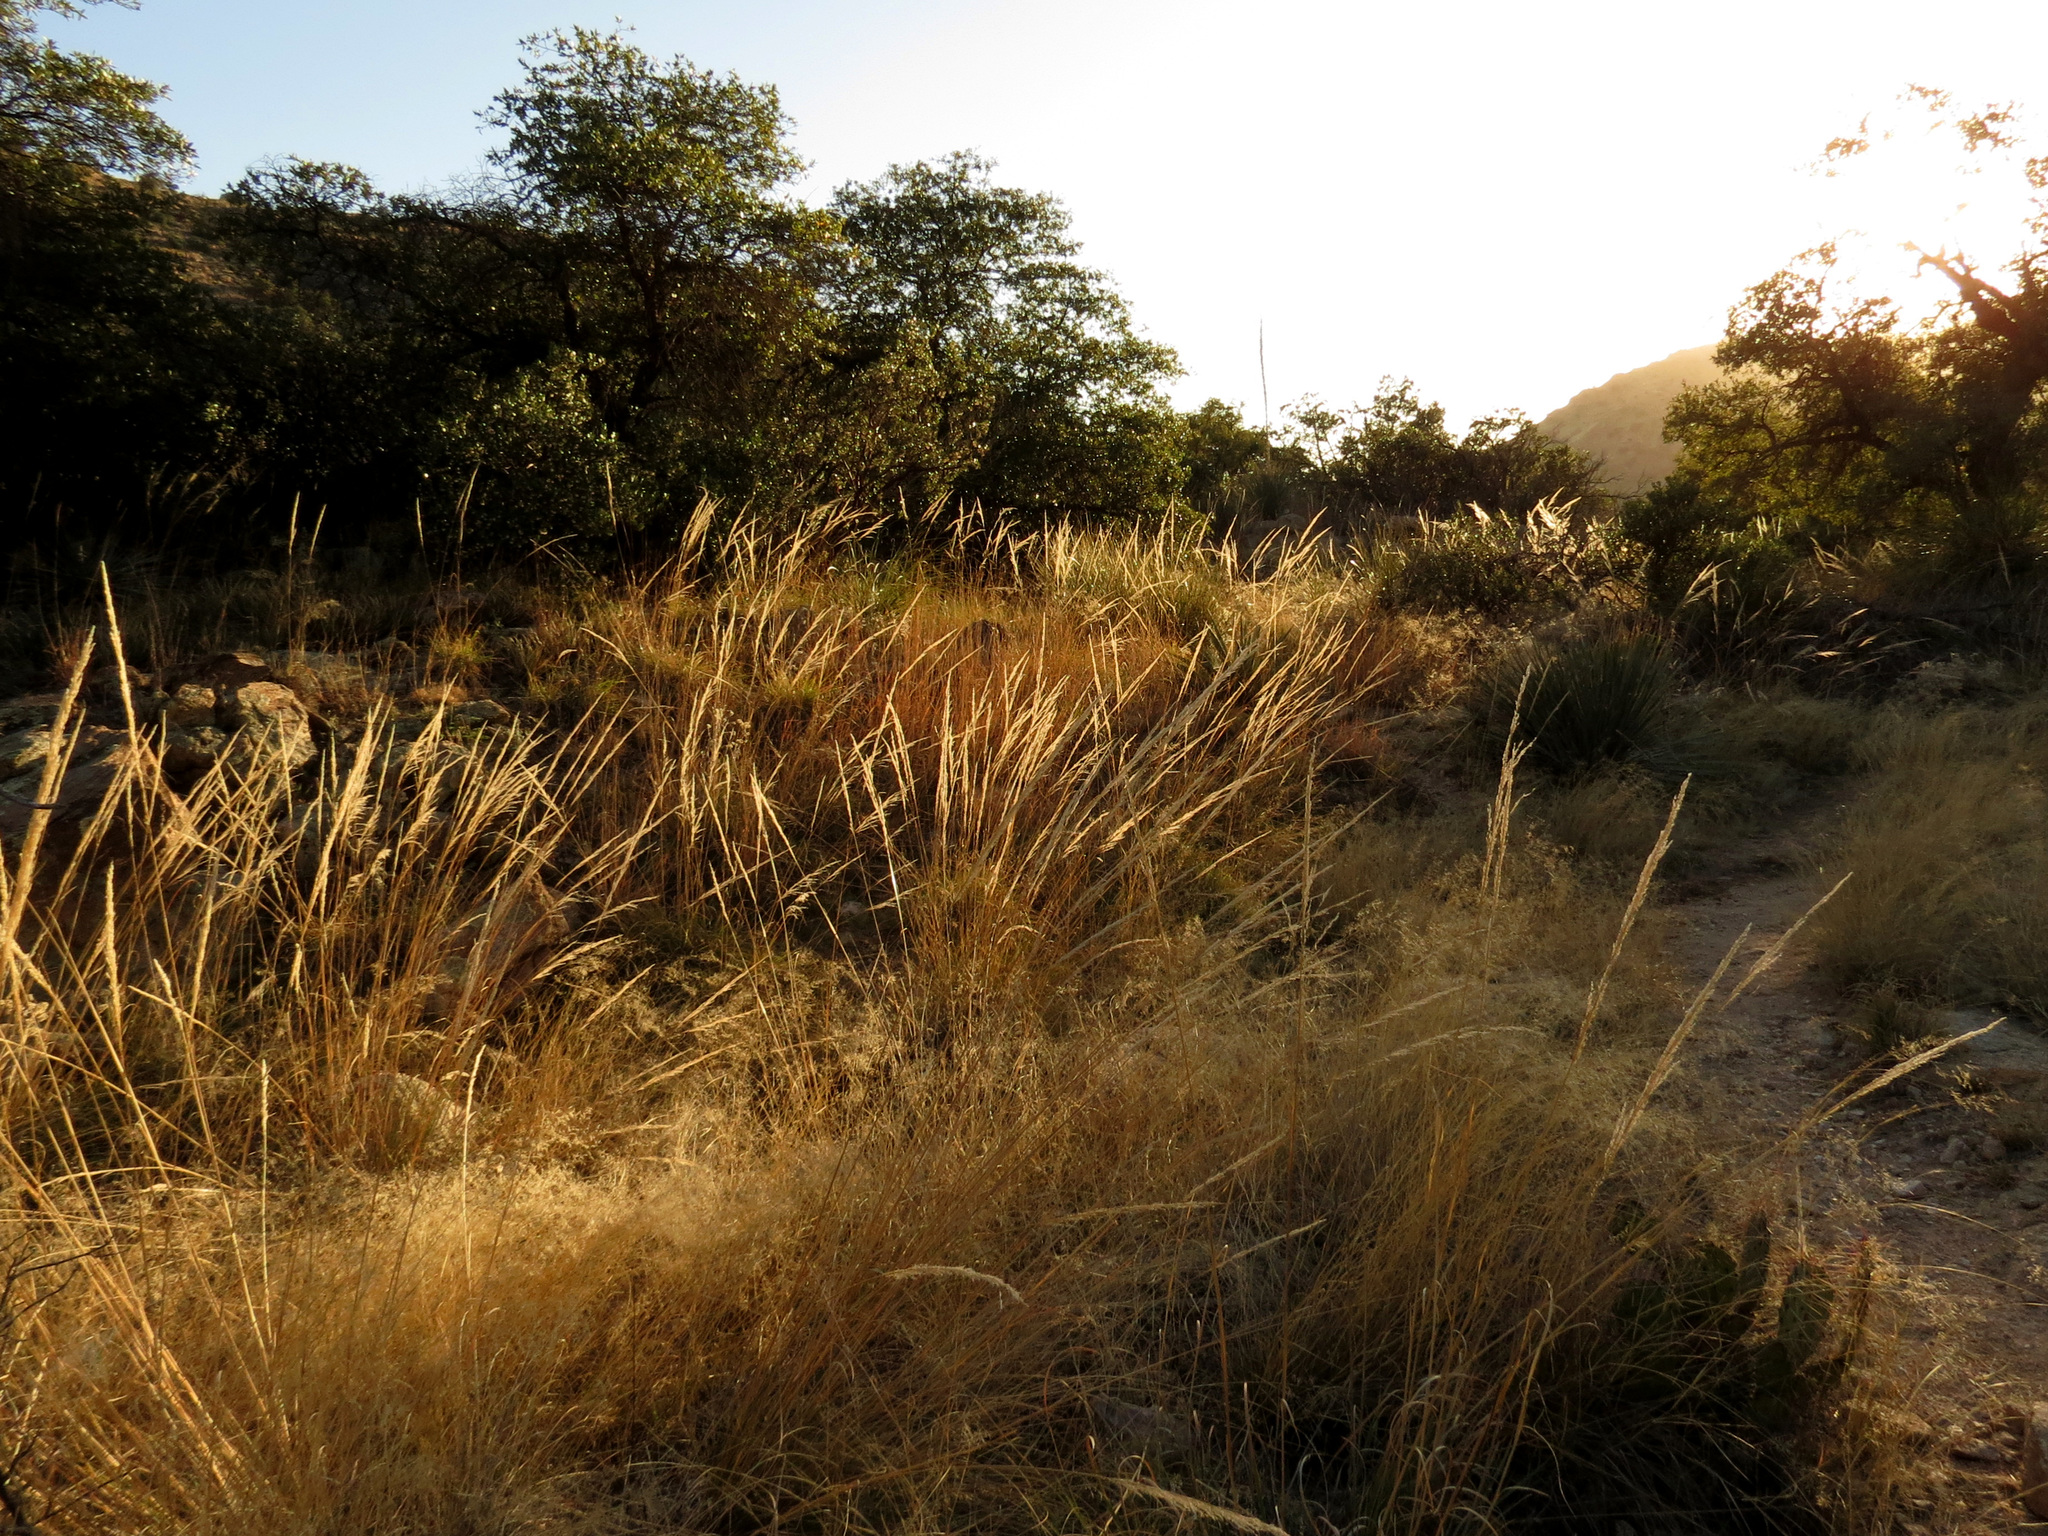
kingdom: Plantae
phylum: Tracheophyta
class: Liliopsida
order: Poales
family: Poaceae
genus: Muhlenbergia
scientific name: Muhlenbergia rigens
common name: Deer grass
